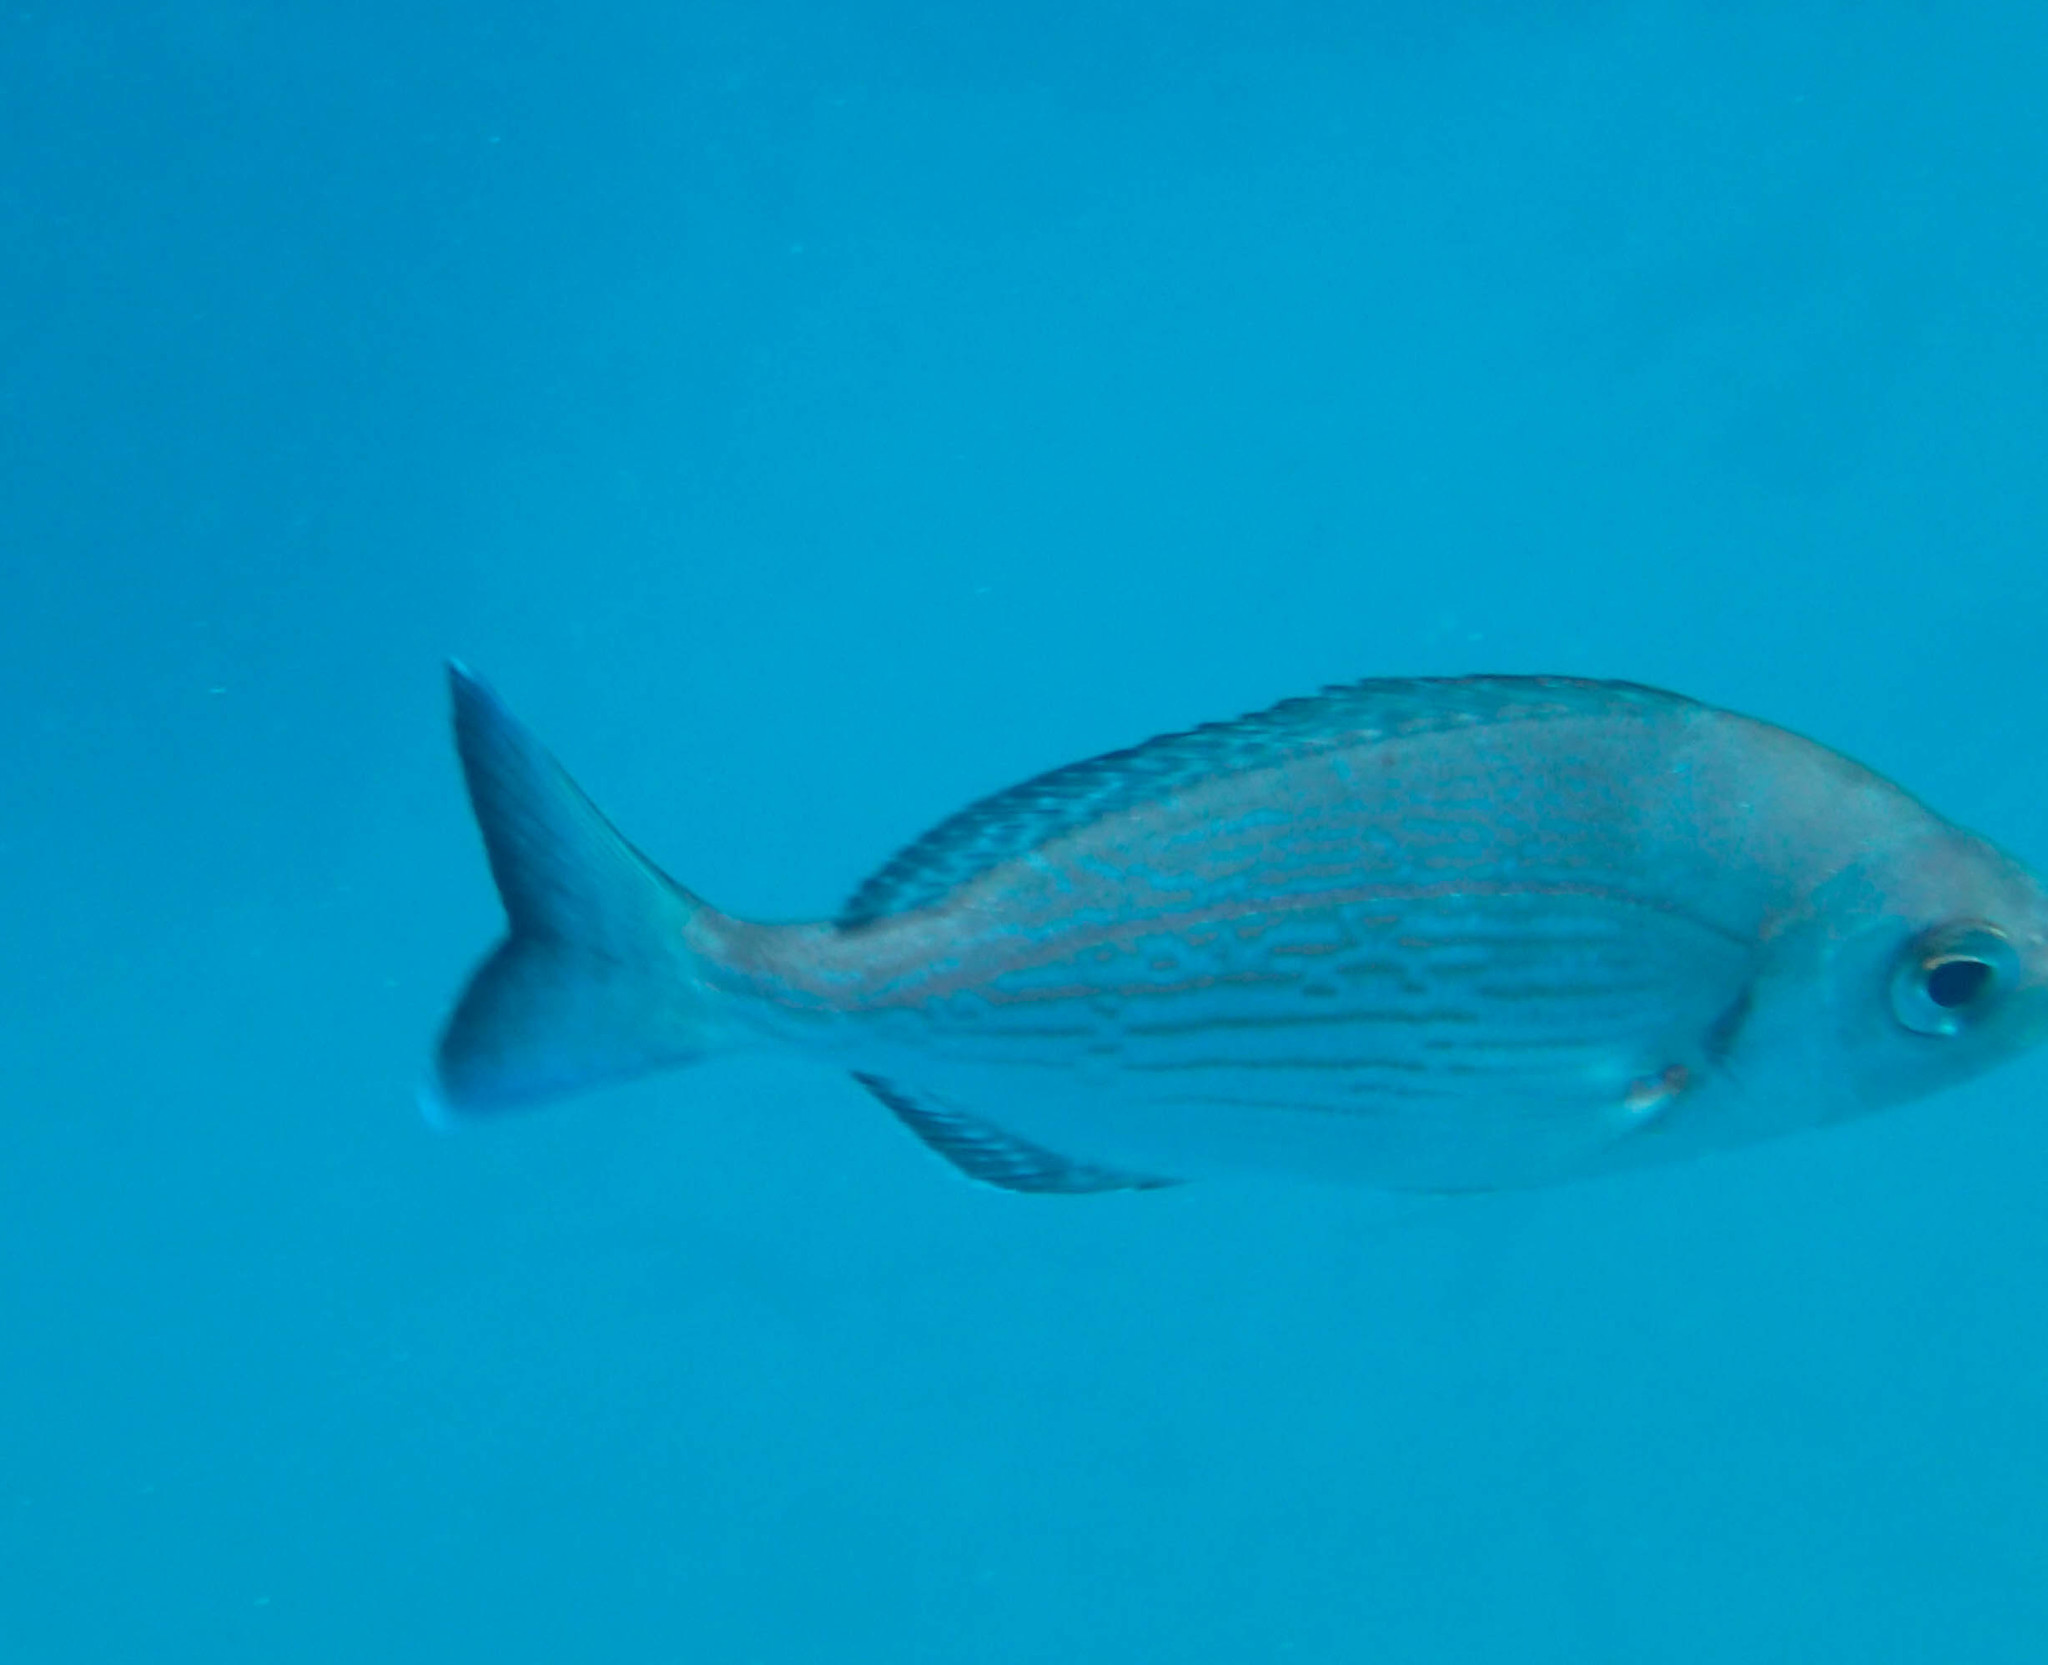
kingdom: Animalia
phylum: Chordata
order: Perciformes
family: Sparidae
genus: Spondyliosoma
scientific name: Spondyliosoma cantharus
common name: Black seabream
